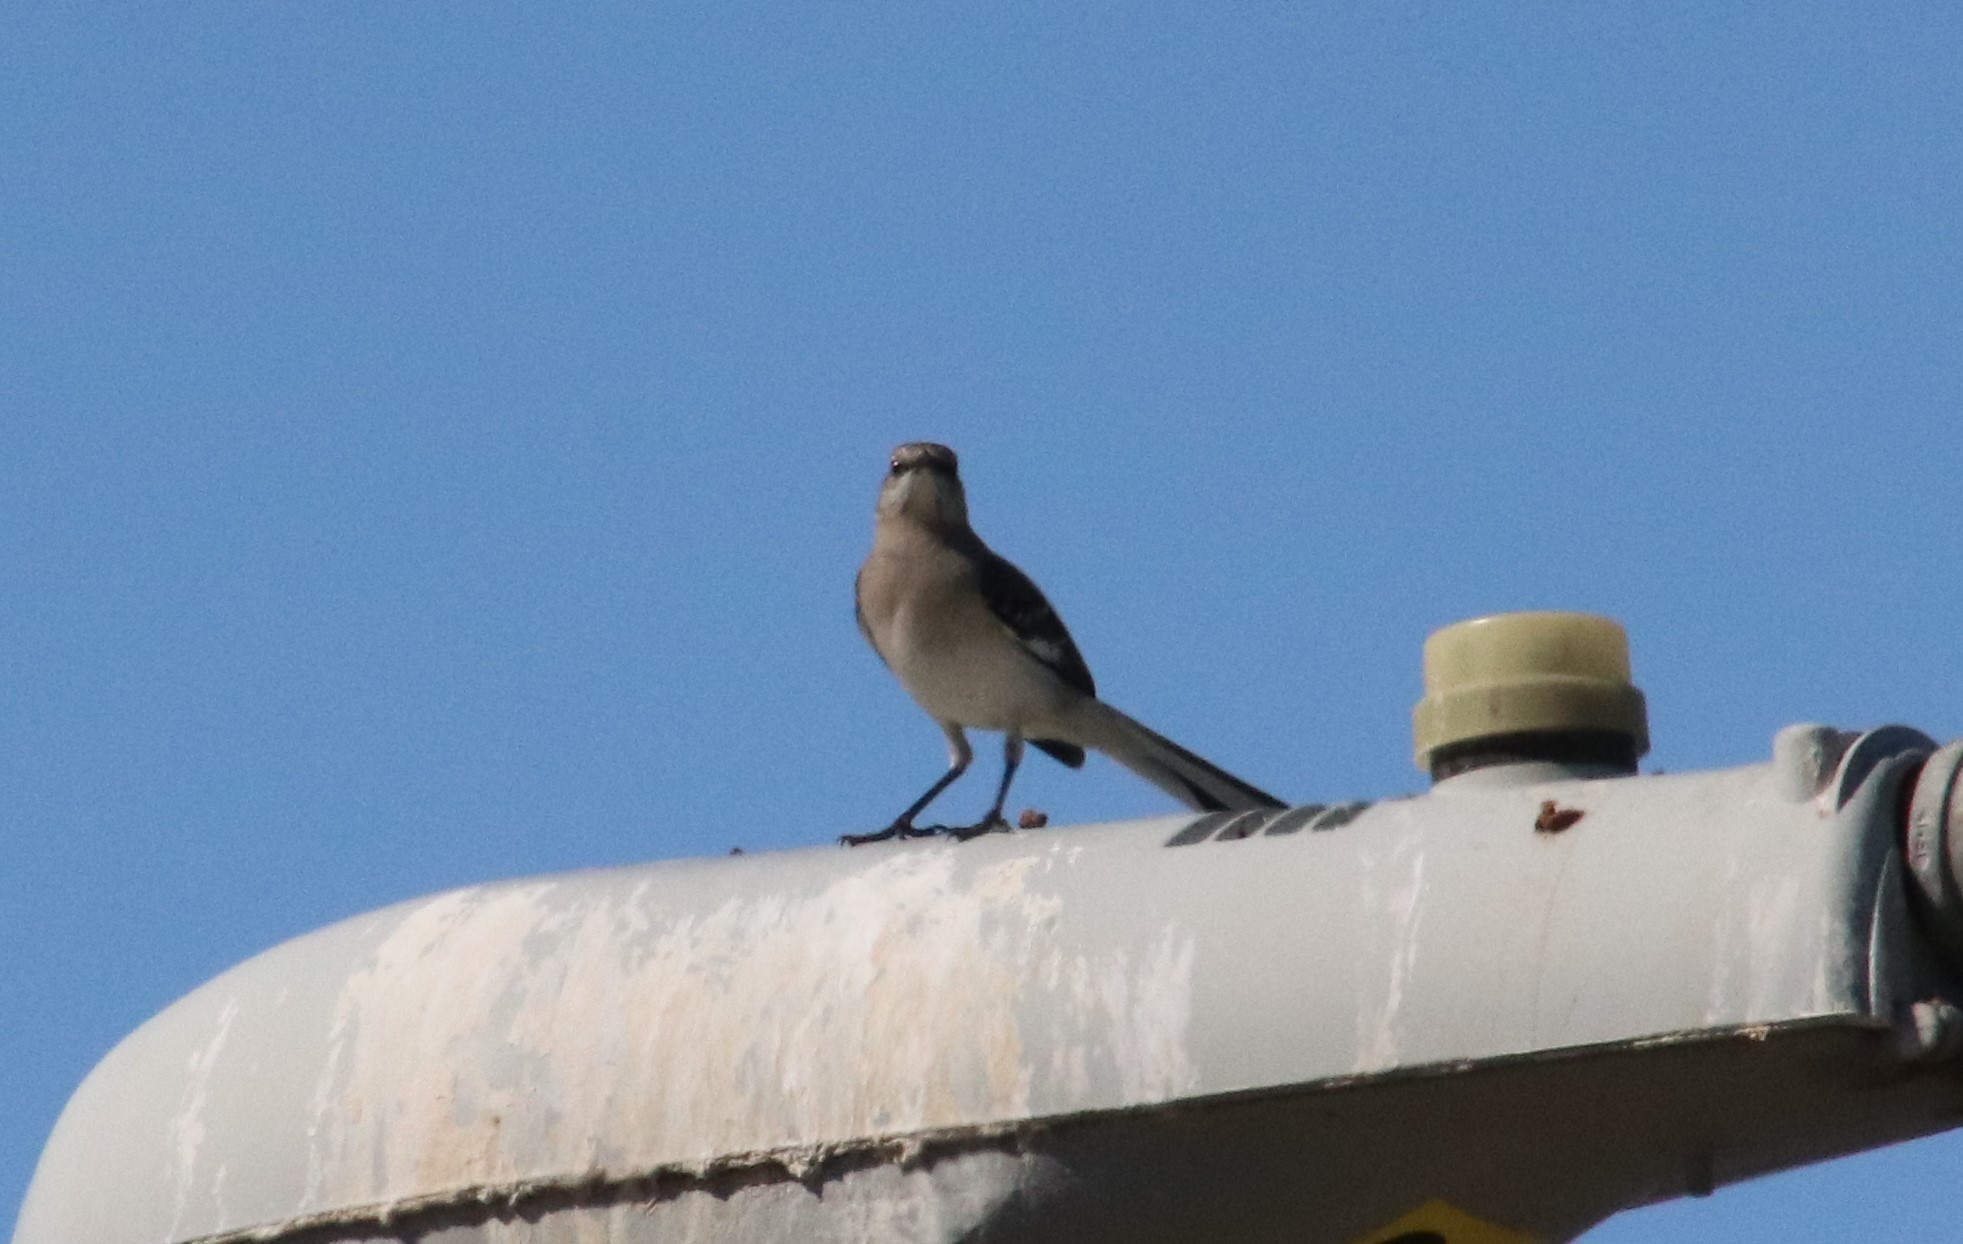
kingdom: Animalia
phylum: Chordata
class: Aves
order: Passeriformes
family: Mimidae
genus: Mimus
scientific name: Mimus polyglottos
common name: Northern mockingbird
